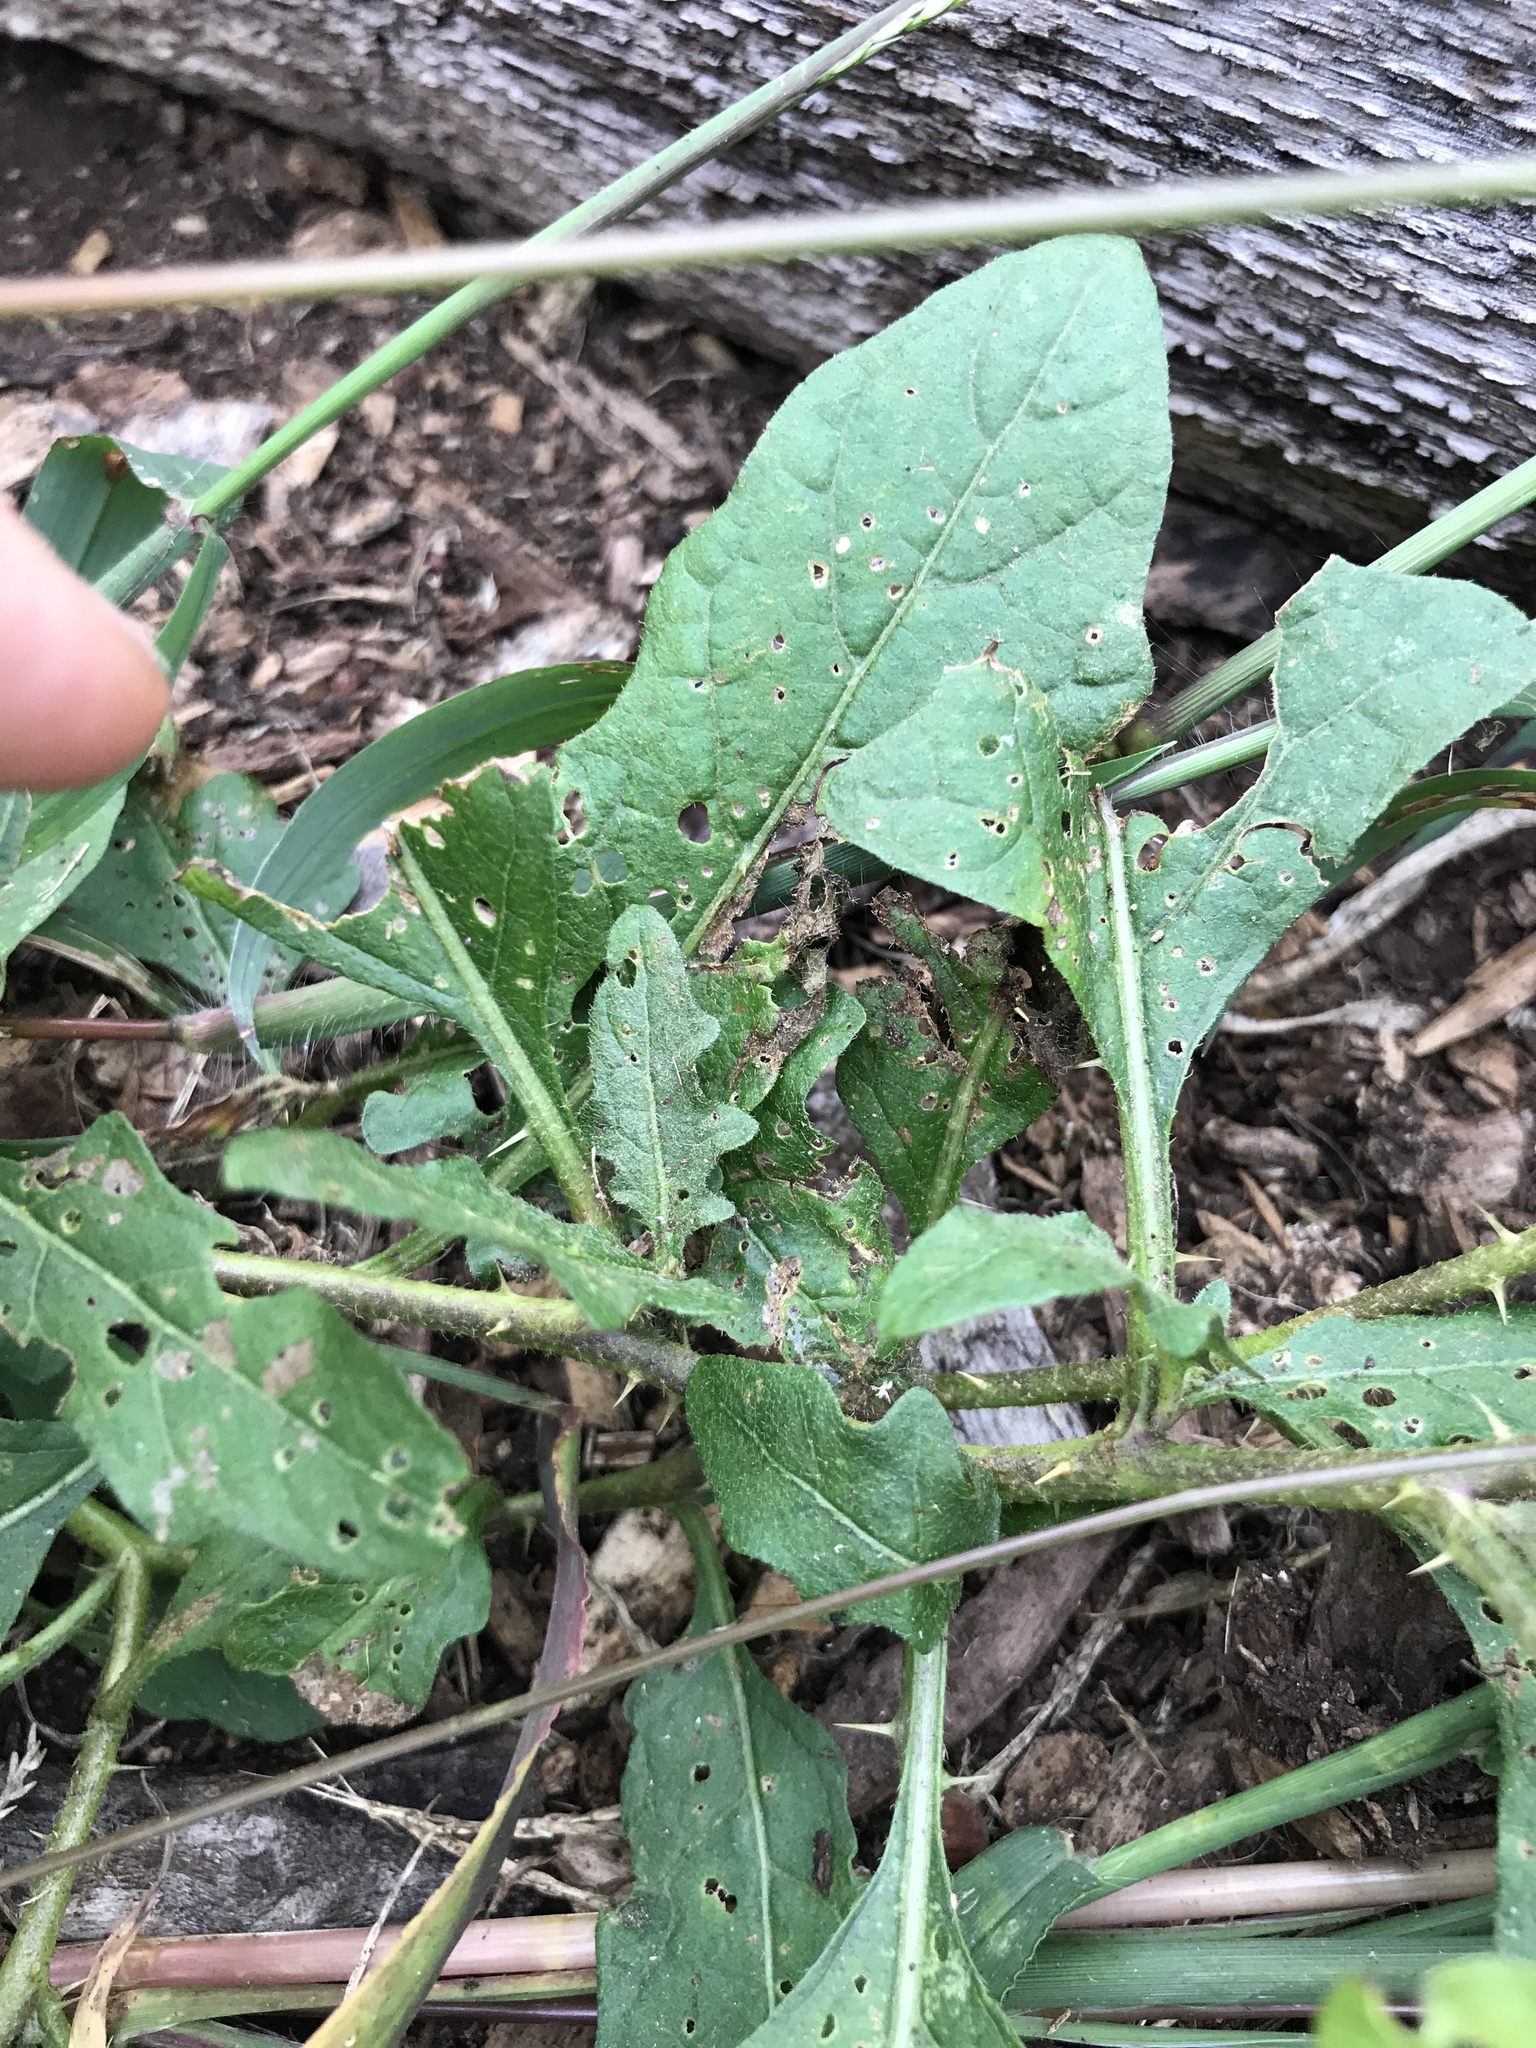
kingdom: Plantae
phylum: Tracheophyta
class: Magnoliopsida
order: Solanales
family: Solanaceae
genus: Solanum
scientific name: Solanum carolinense
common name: Horse-nettle
